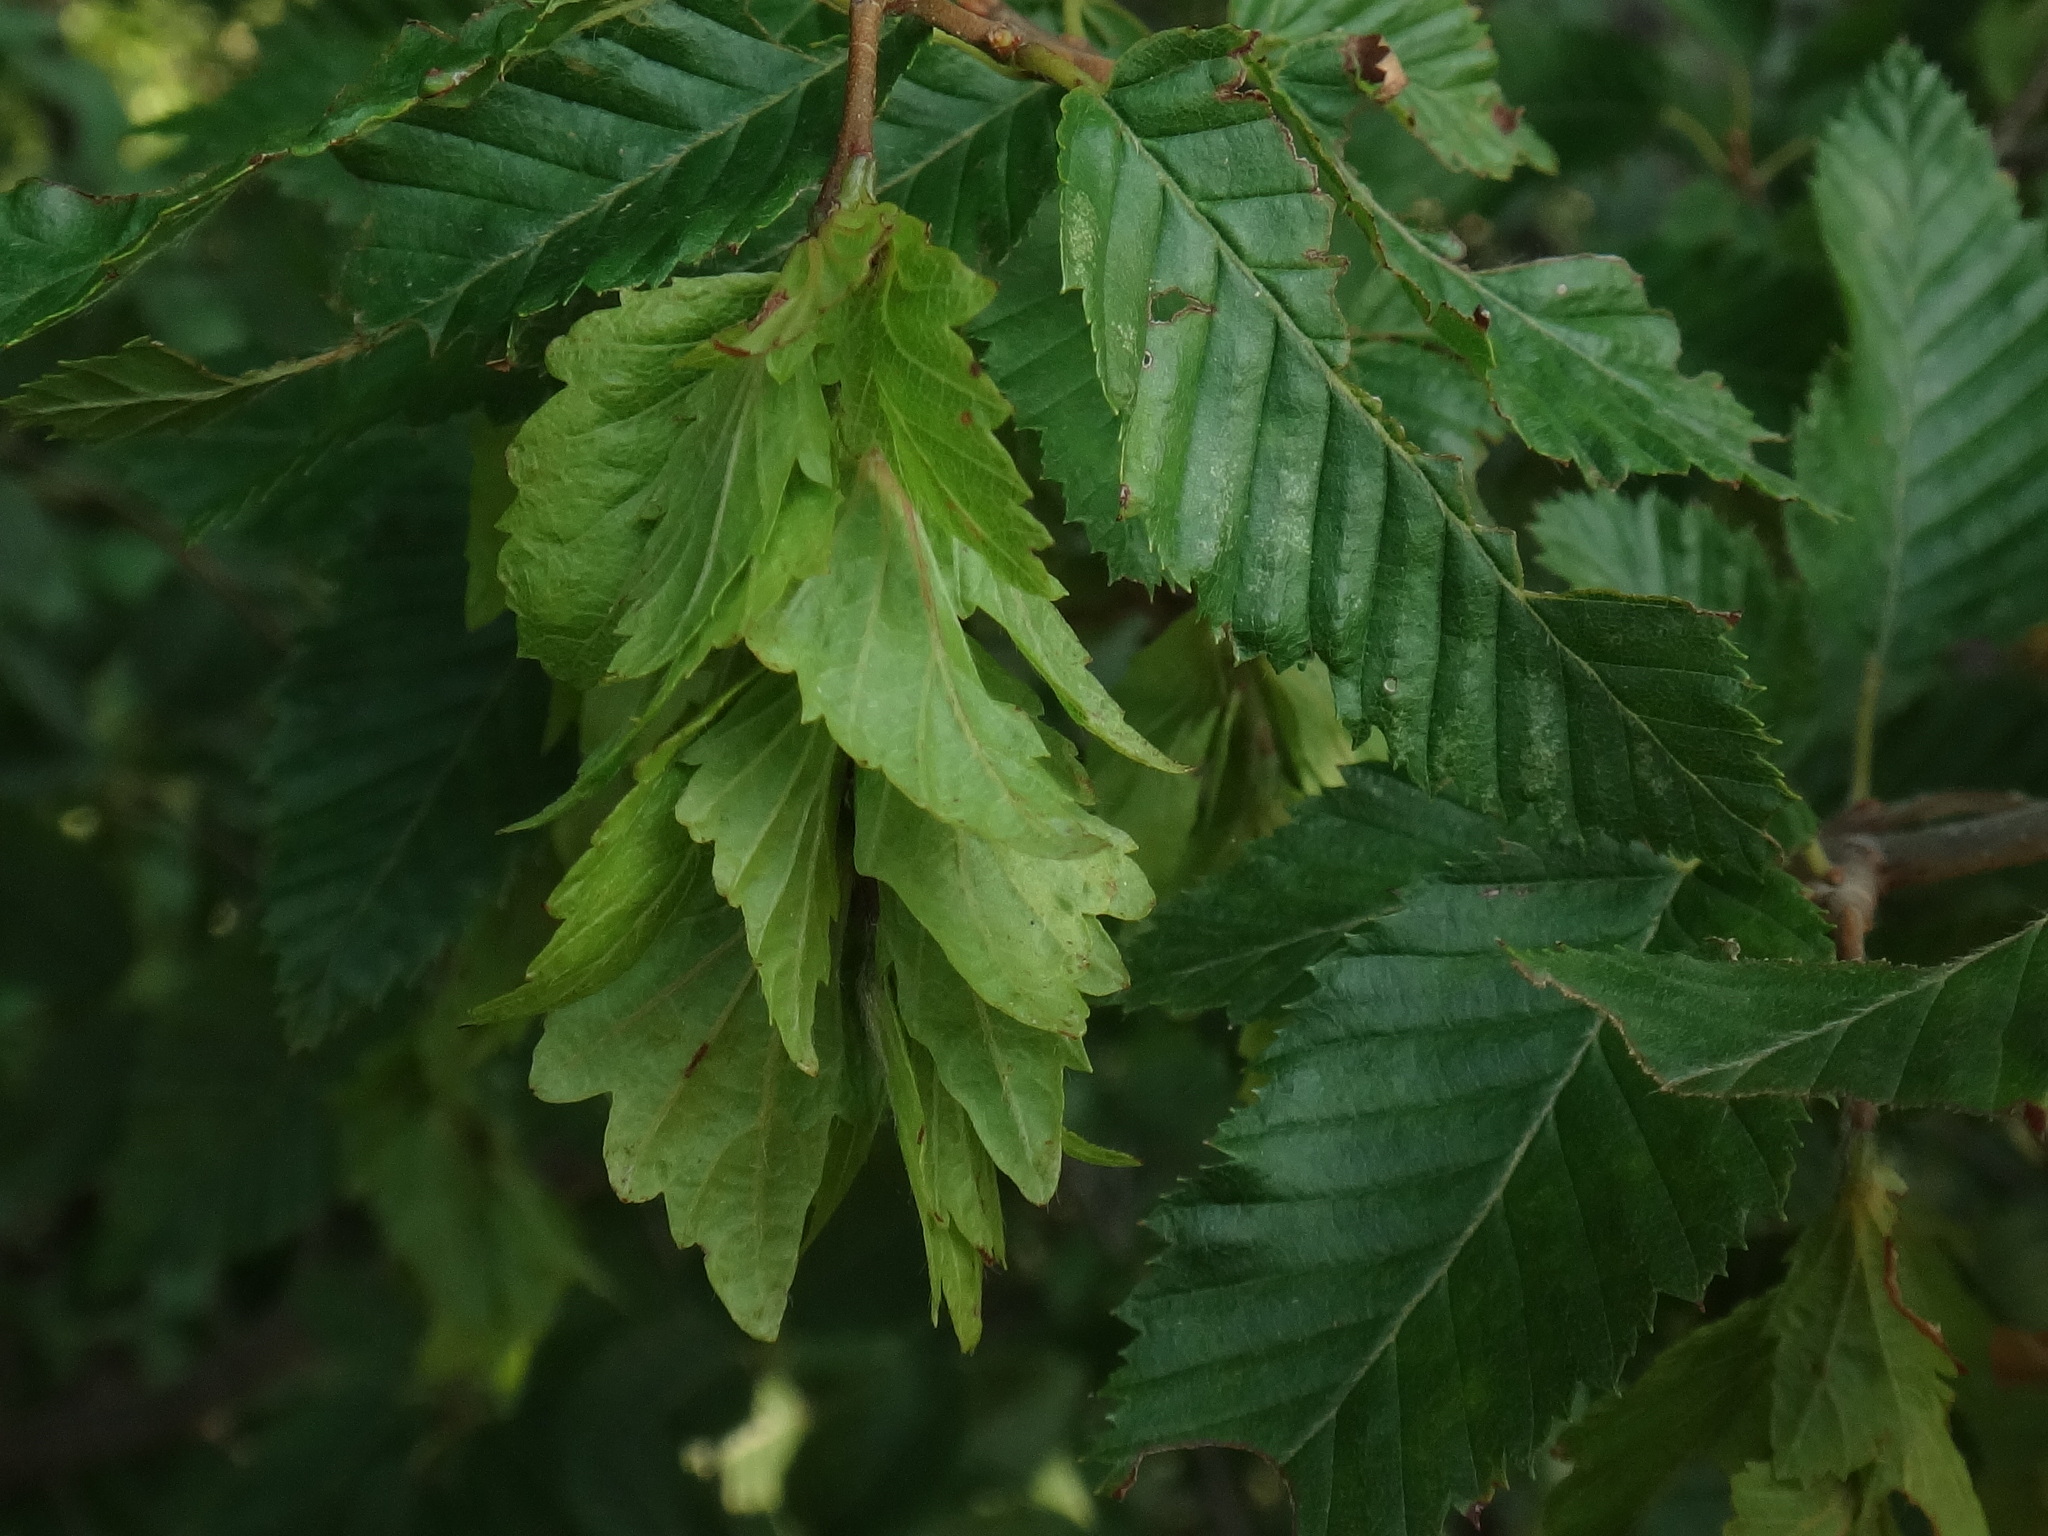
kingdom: Plantae
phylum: Tracheophyta
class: Magnoliopsida
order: Fagales
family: Betulaceae
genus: Carpinus
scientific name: Carpinus orientalis
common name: Eastern hornbeam
